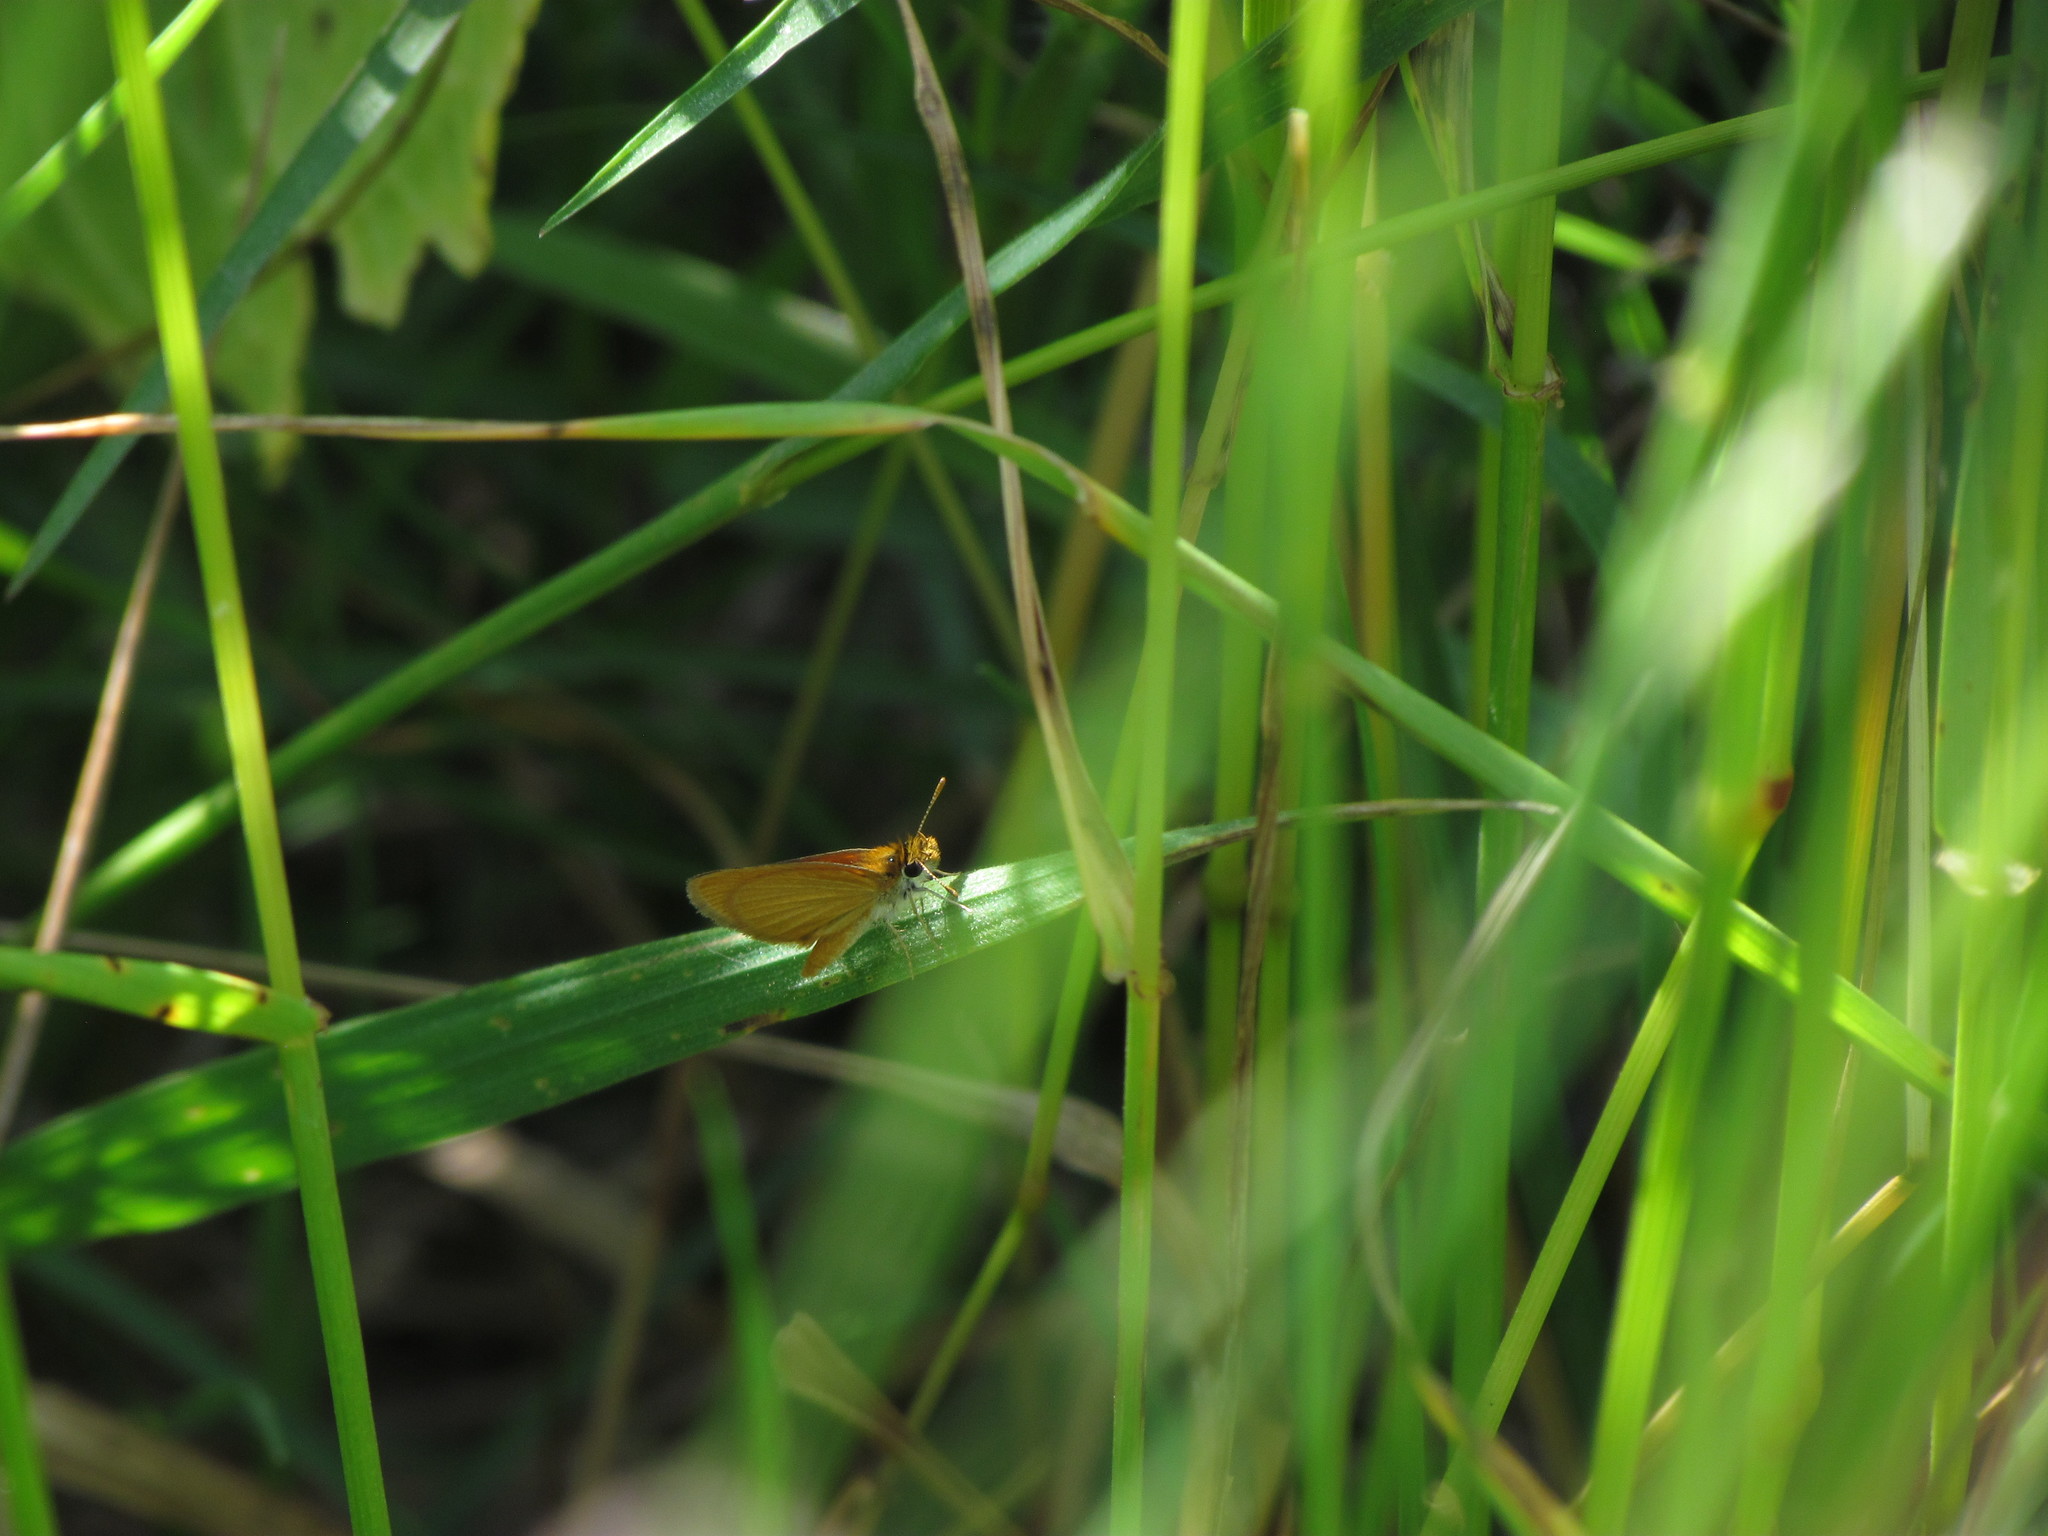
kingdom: Animalia
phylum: Arthropoda
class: Insecta
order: Lepidoptera
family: Hesperiidae
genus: Ancyloxypha
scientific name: Ancyloxypha nitedula
